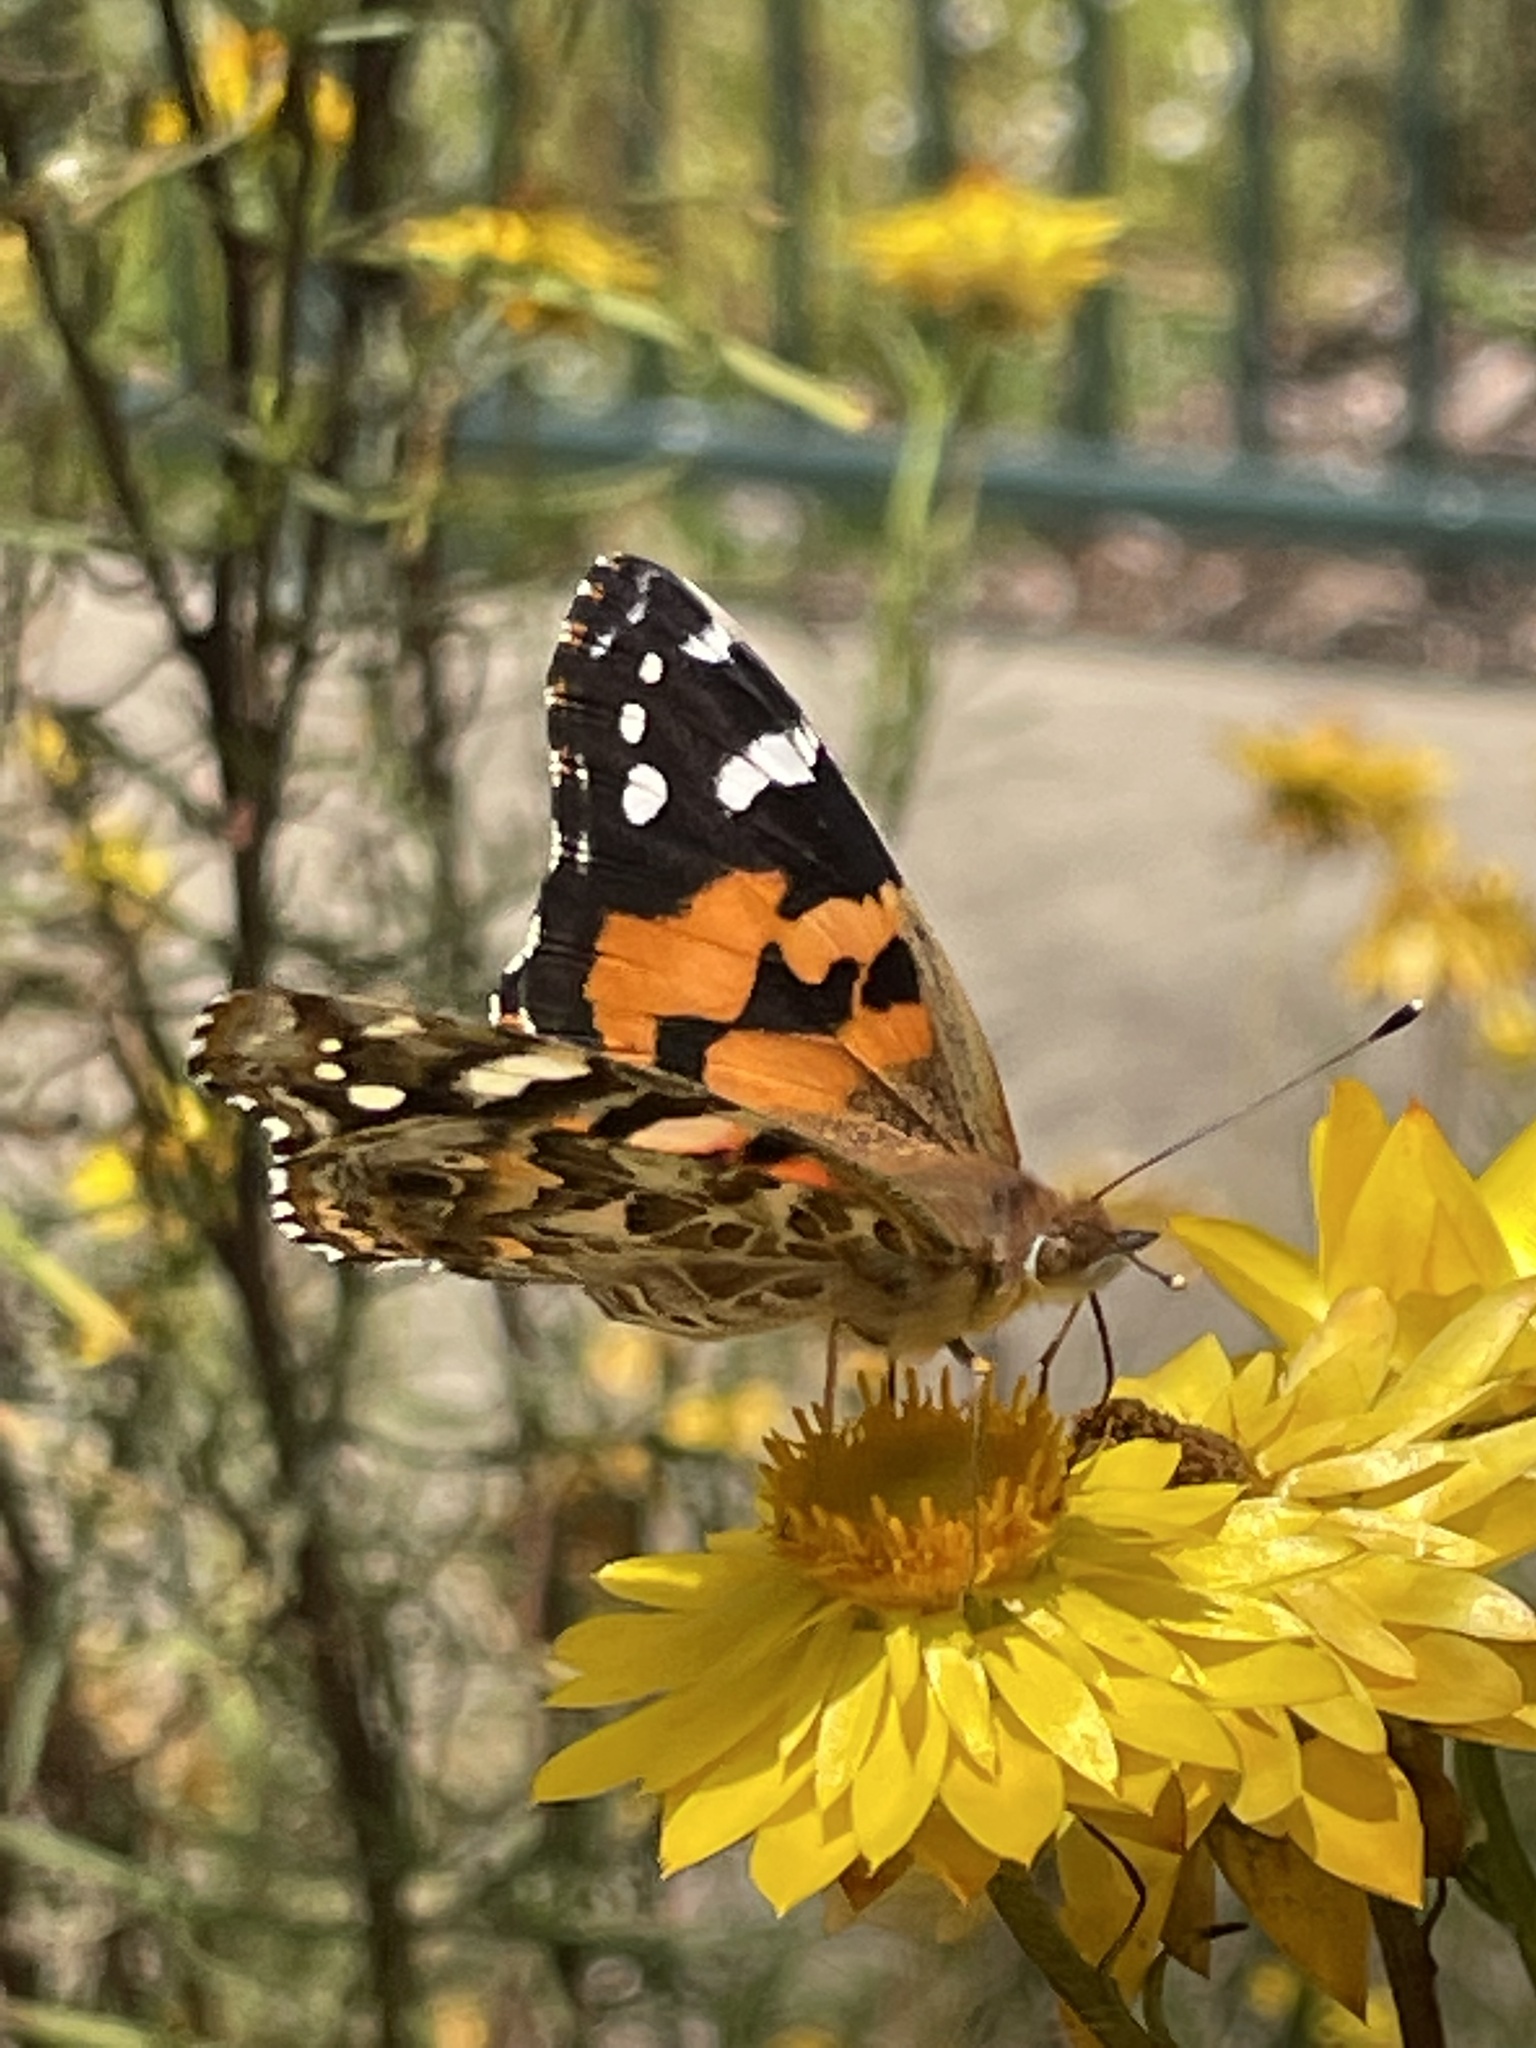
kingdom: Animalia
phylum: Arthropoda
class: Insecta
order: Lepidoptera
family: Nymphalidae
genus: Vanessa
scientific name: Vanessa kershawi
